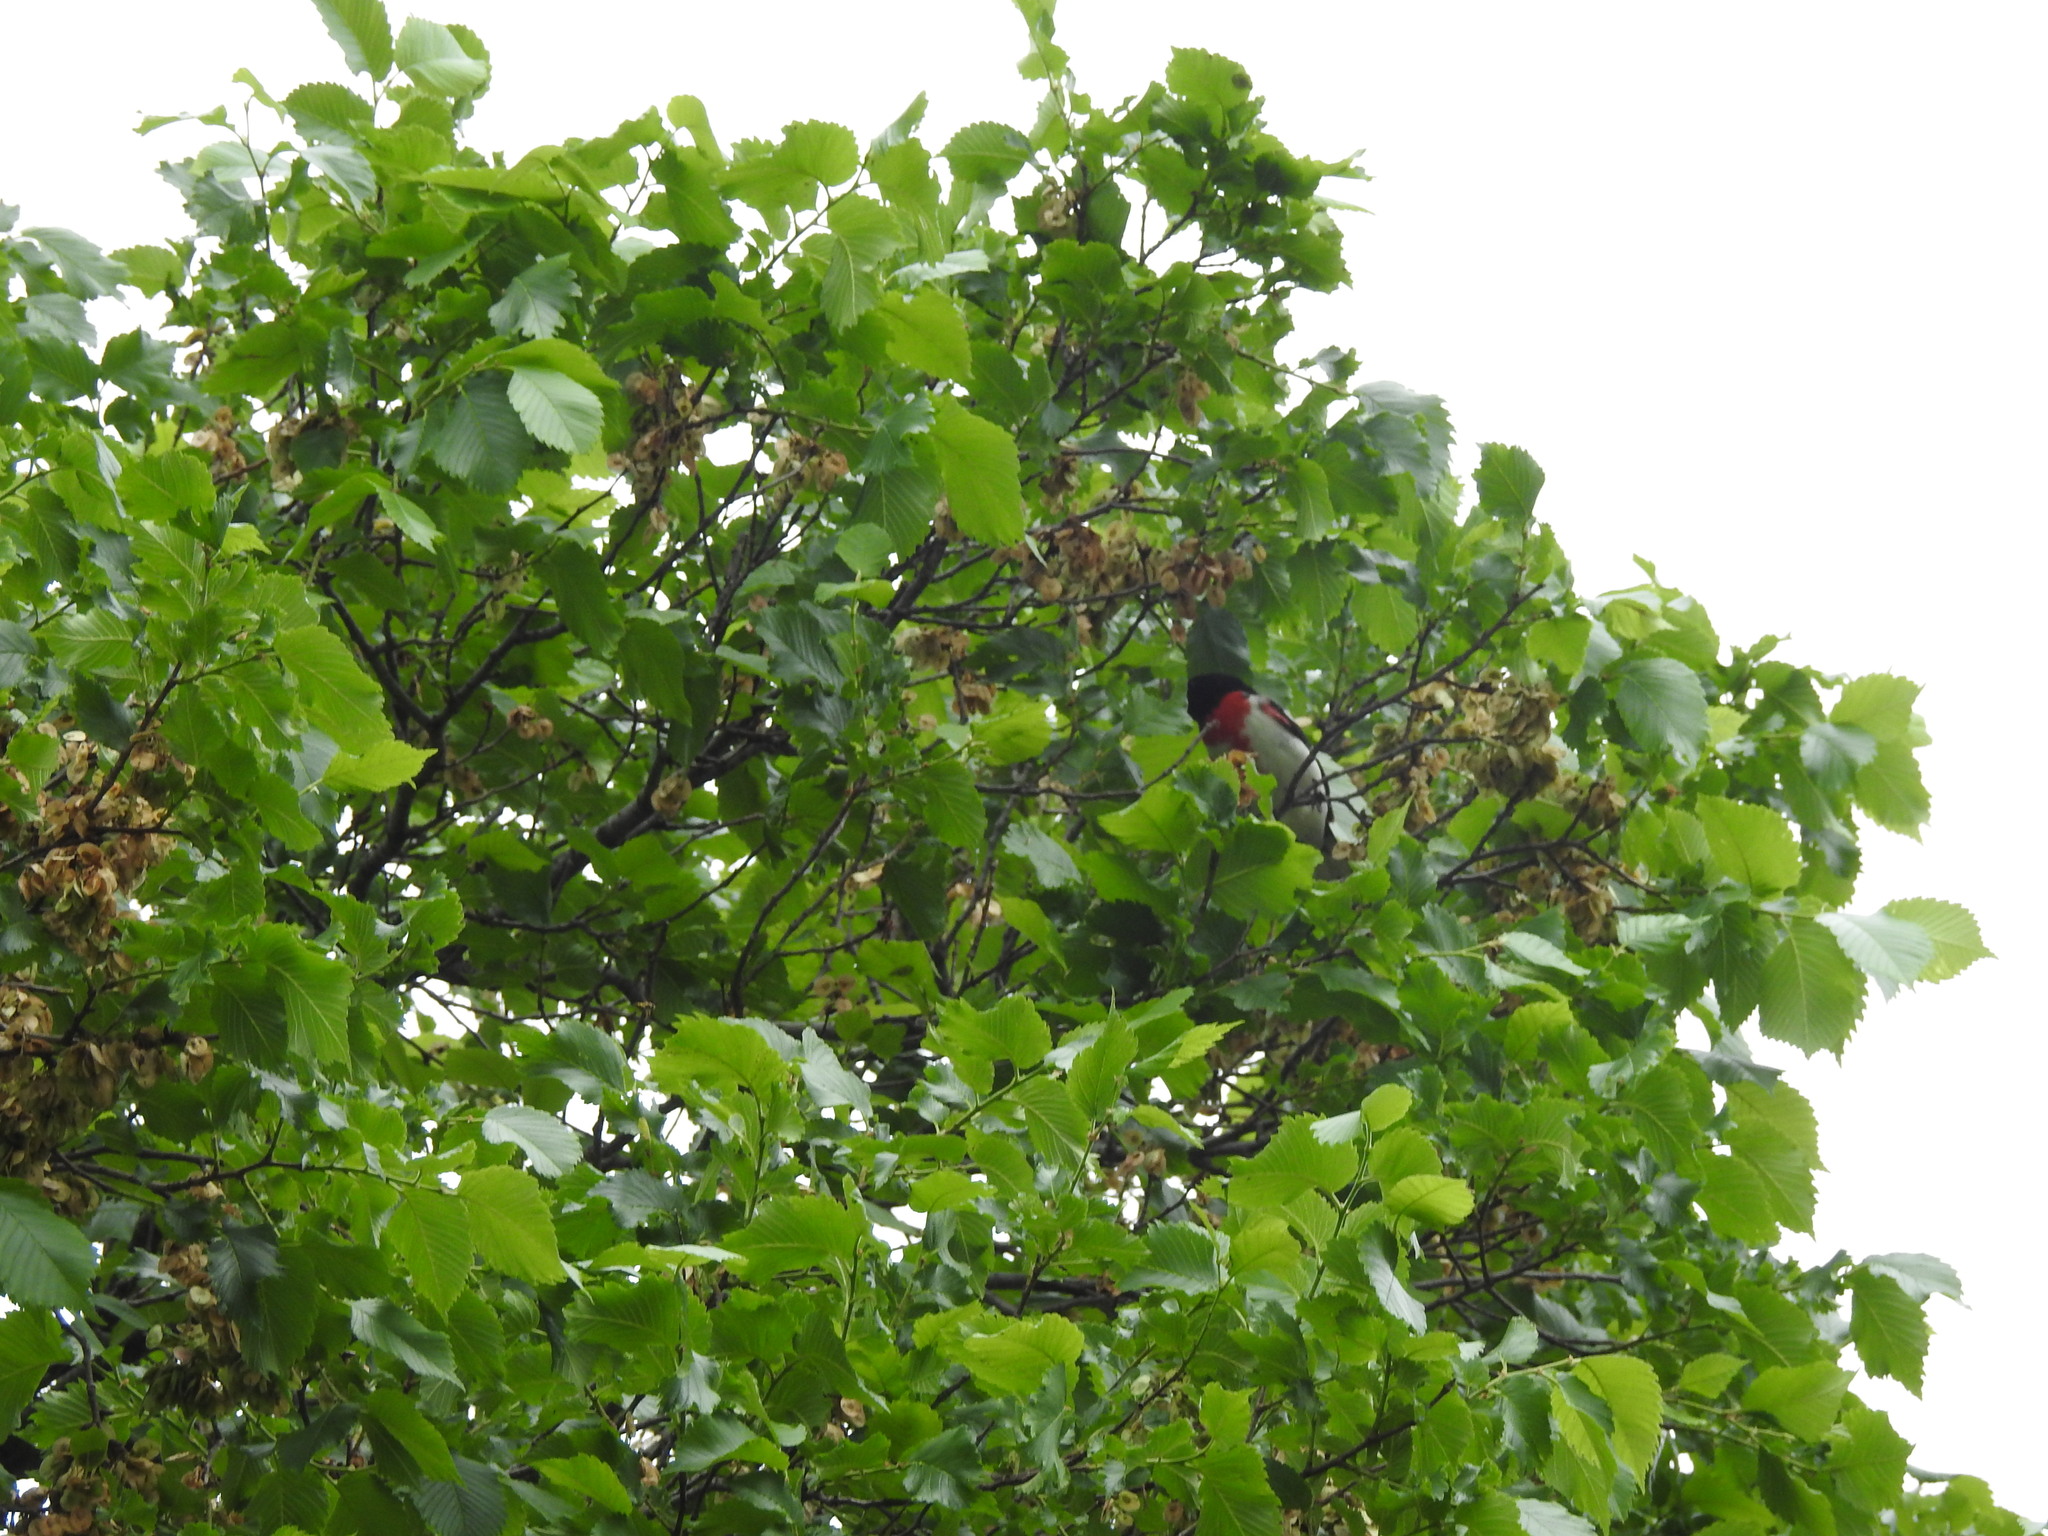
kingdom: Animalia
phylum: Chordata
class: Aves
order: Passeriformes
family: Cardinalidae
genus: Pheucticus
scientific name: Pheucticus ludovicianus
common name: Rose-breasted grosbeak
